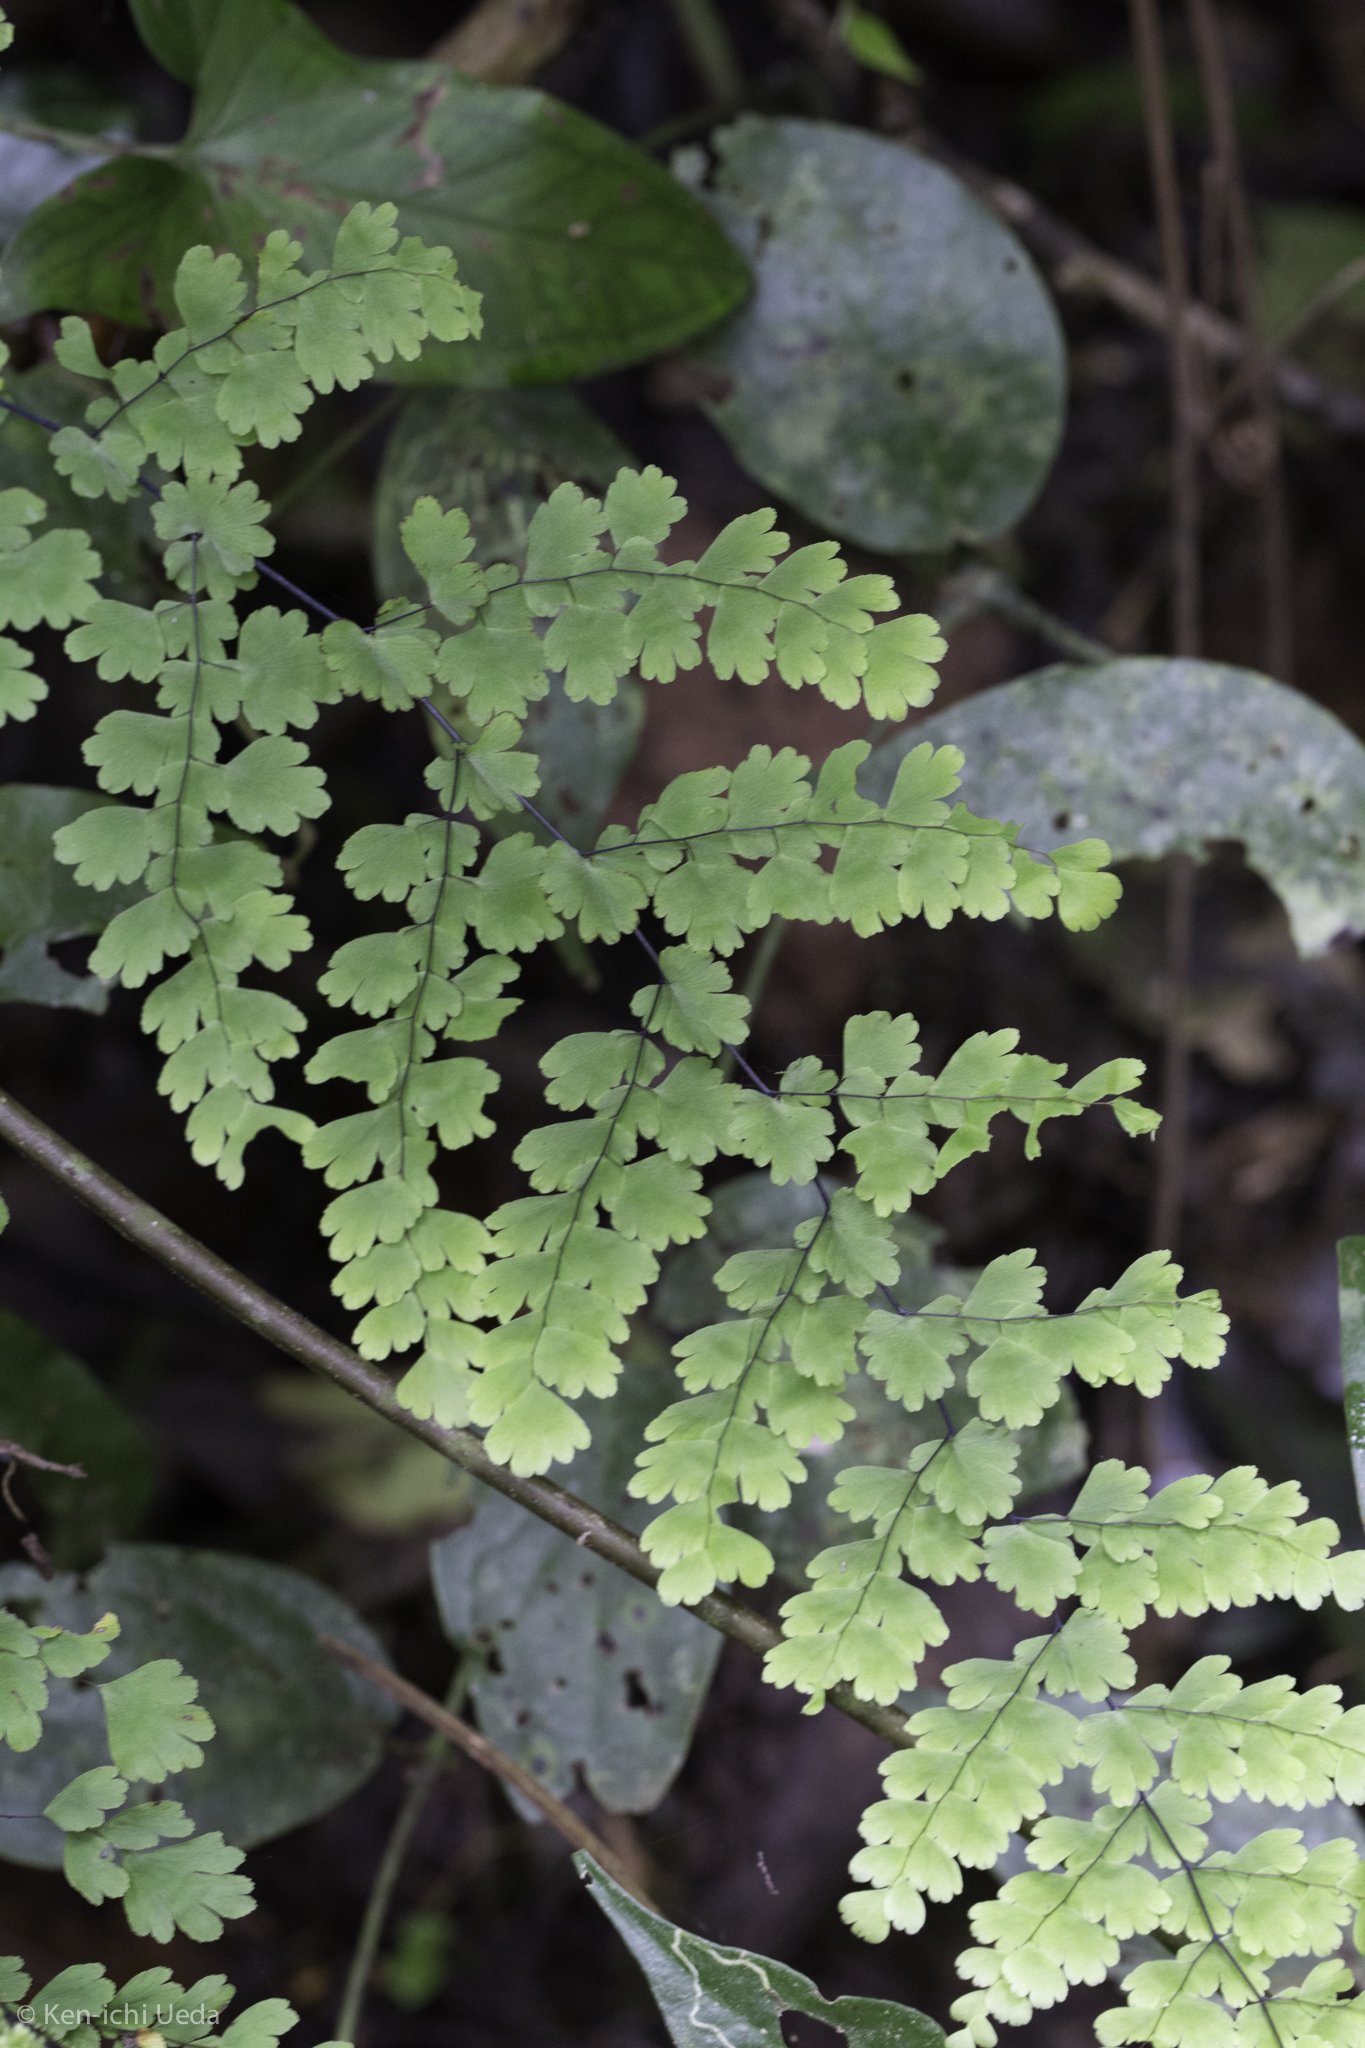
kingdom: Plantae
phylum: Tracheophyta
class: Polypodiopsida
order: Polypodiales
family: Pteridaceae
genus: Adiantum
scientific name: Adiantum concinnum
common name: Brittle maidenhair fern
